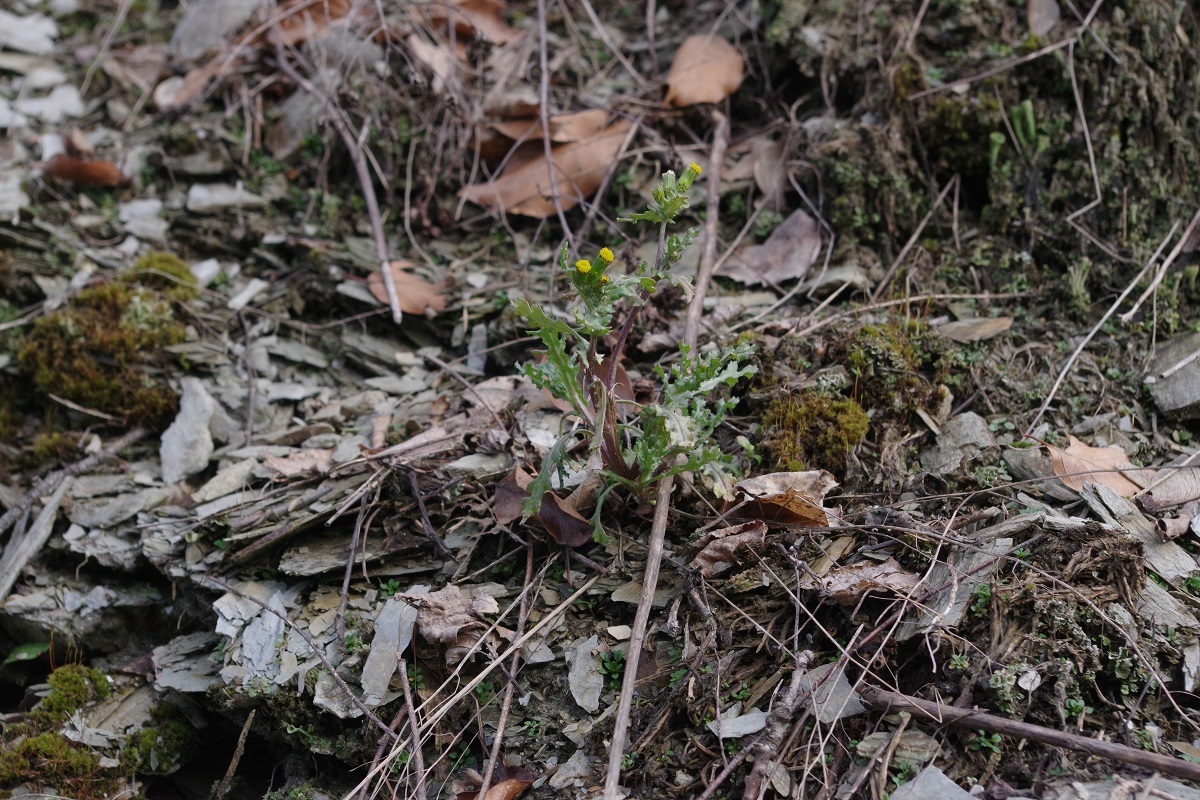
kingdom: Plantae
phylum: Tracheophyta
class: Magnoliopsida
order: Asterales
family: Asteraceae
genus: Senecio
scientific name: Senecio vulgaris
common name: Old-man-in-the-spring
